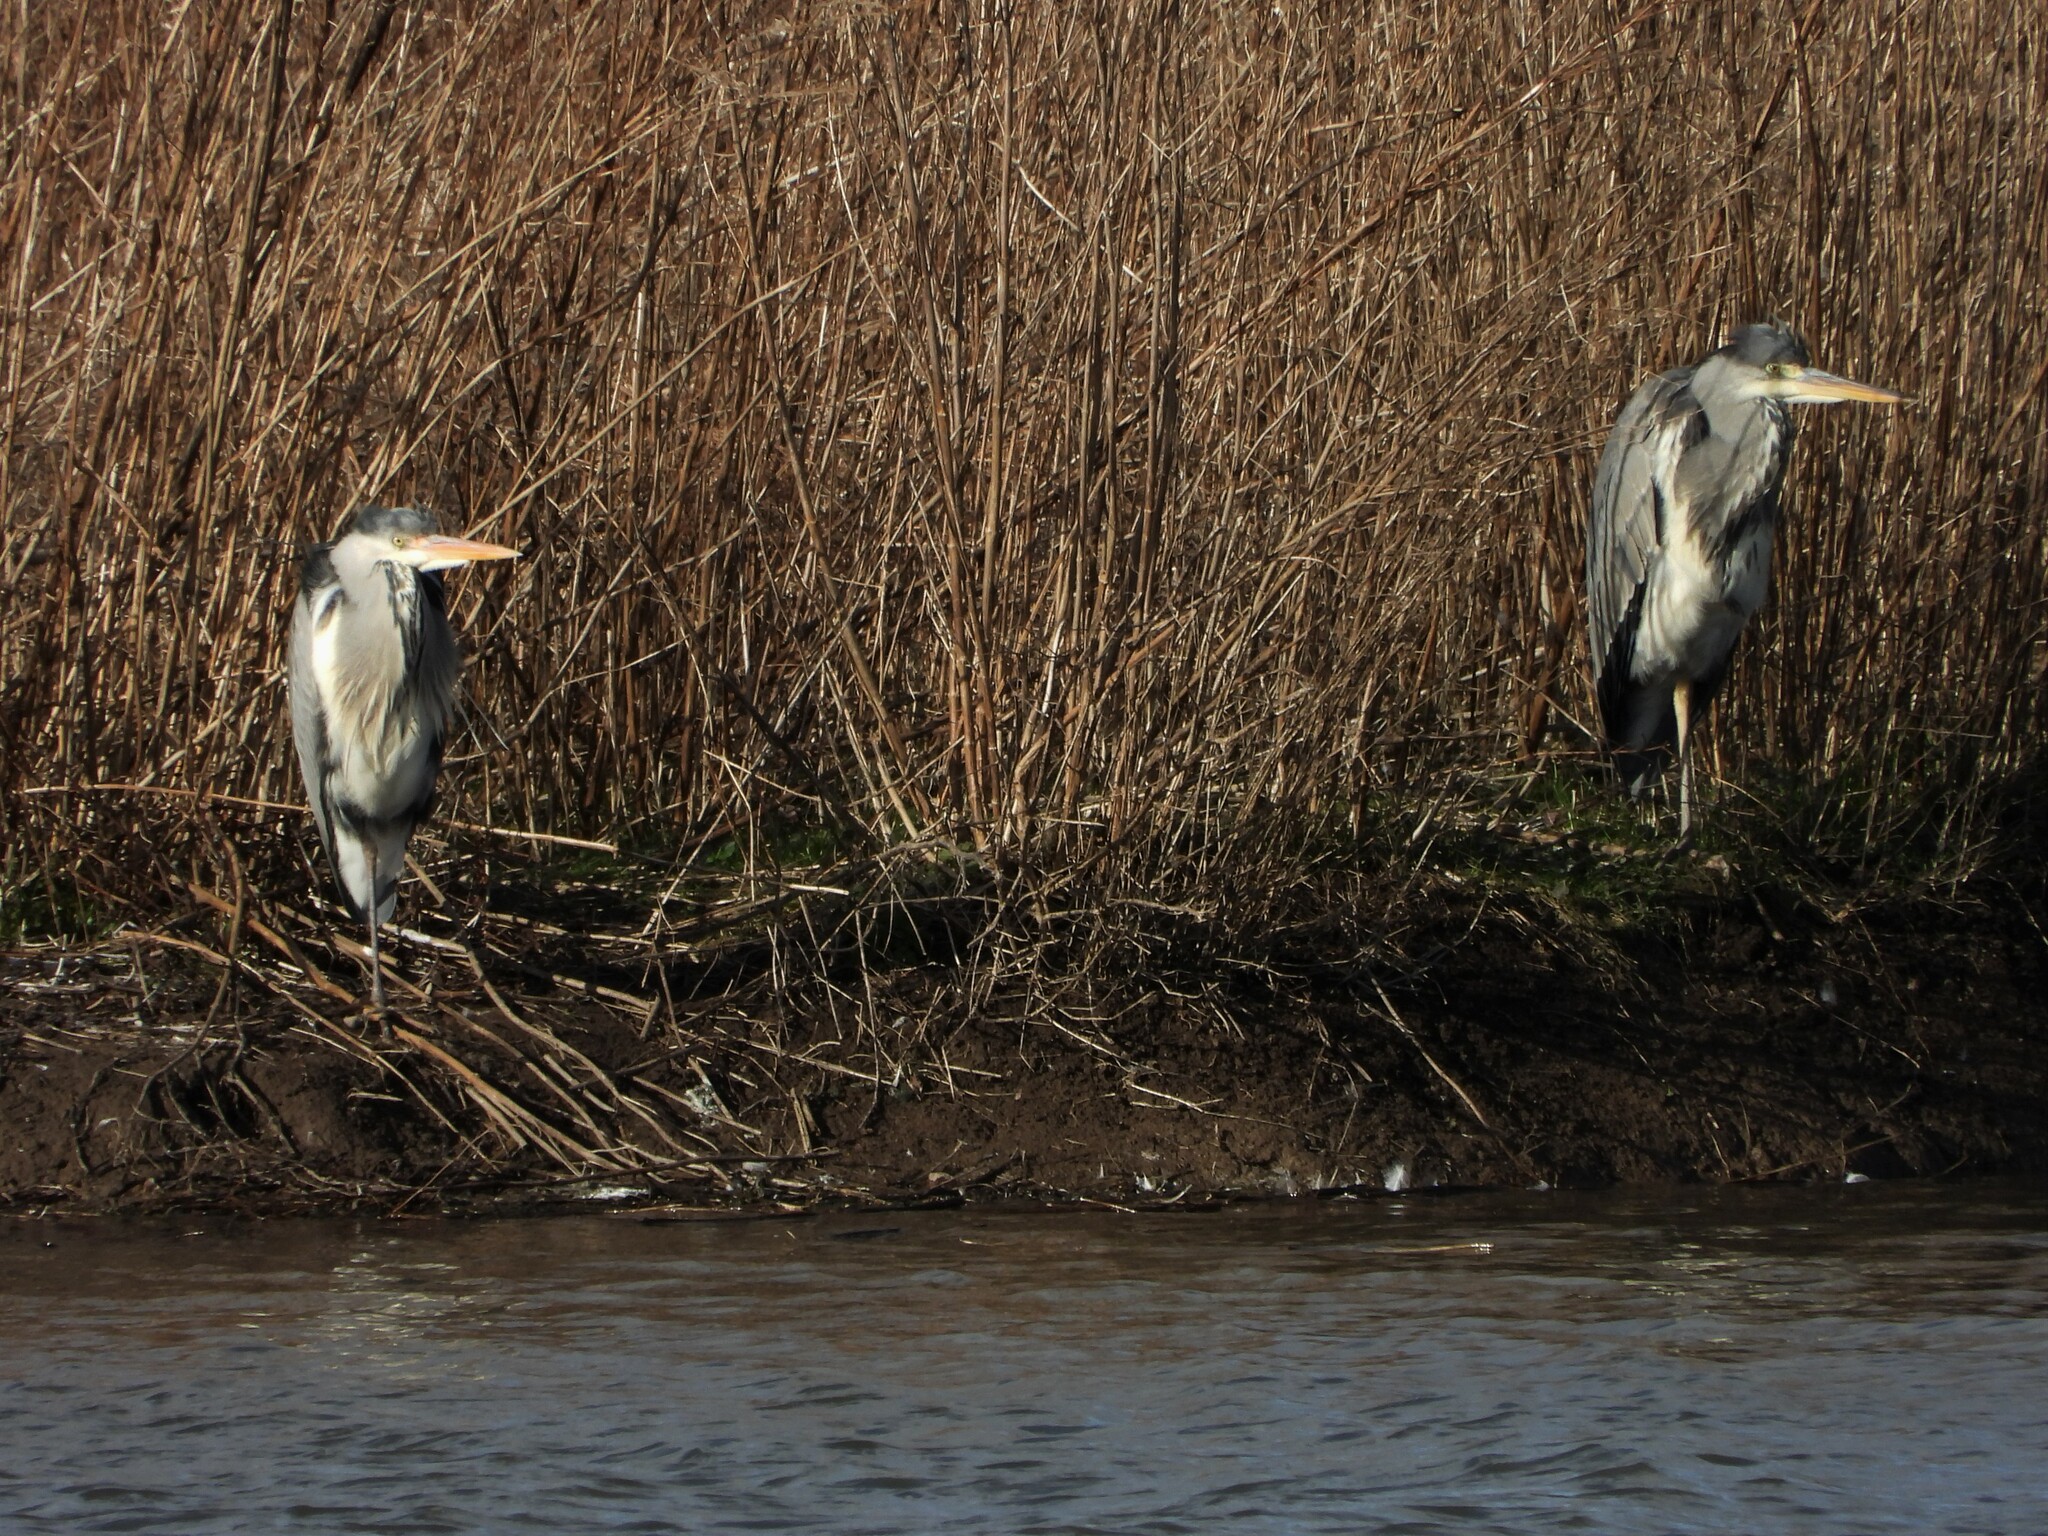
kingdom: Animalia
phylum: Chordata
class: Aves
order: Pelecaniformes
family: Ardeidae
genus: Ardea
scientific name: Ardea cinerea
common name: Grey heron
